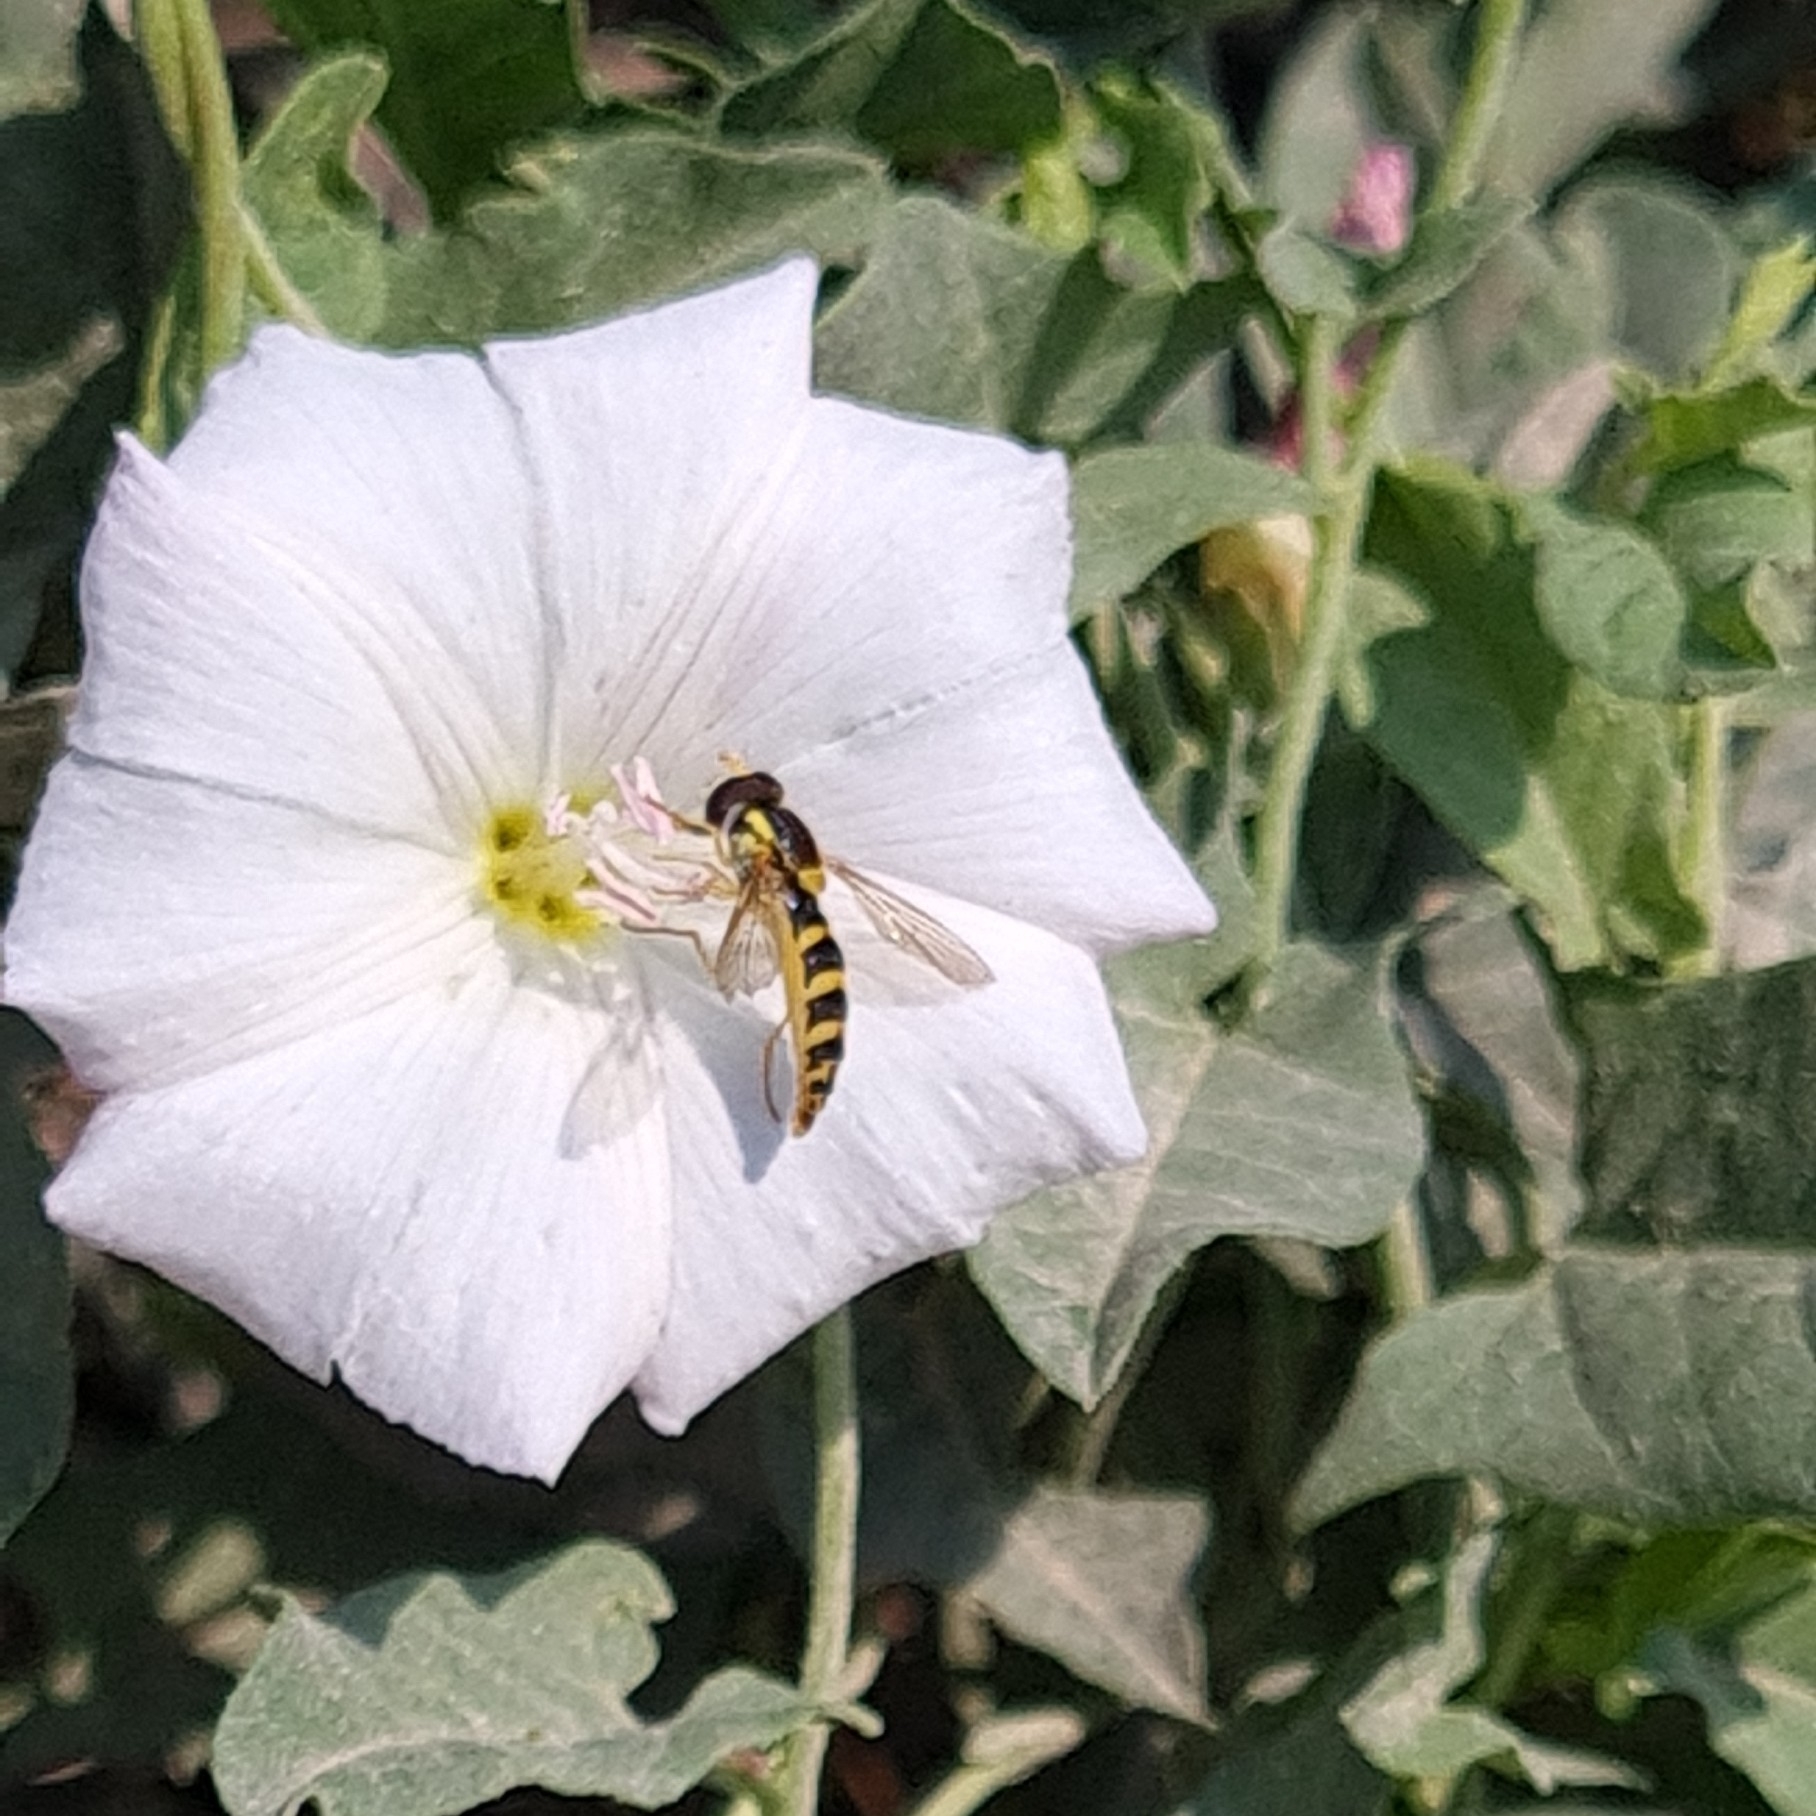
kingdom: Animalia
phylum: Arthropoda
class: Insecta
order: Diptera
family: Syrphidae
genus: Sphaerophoria
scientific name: Sphaerophoria
